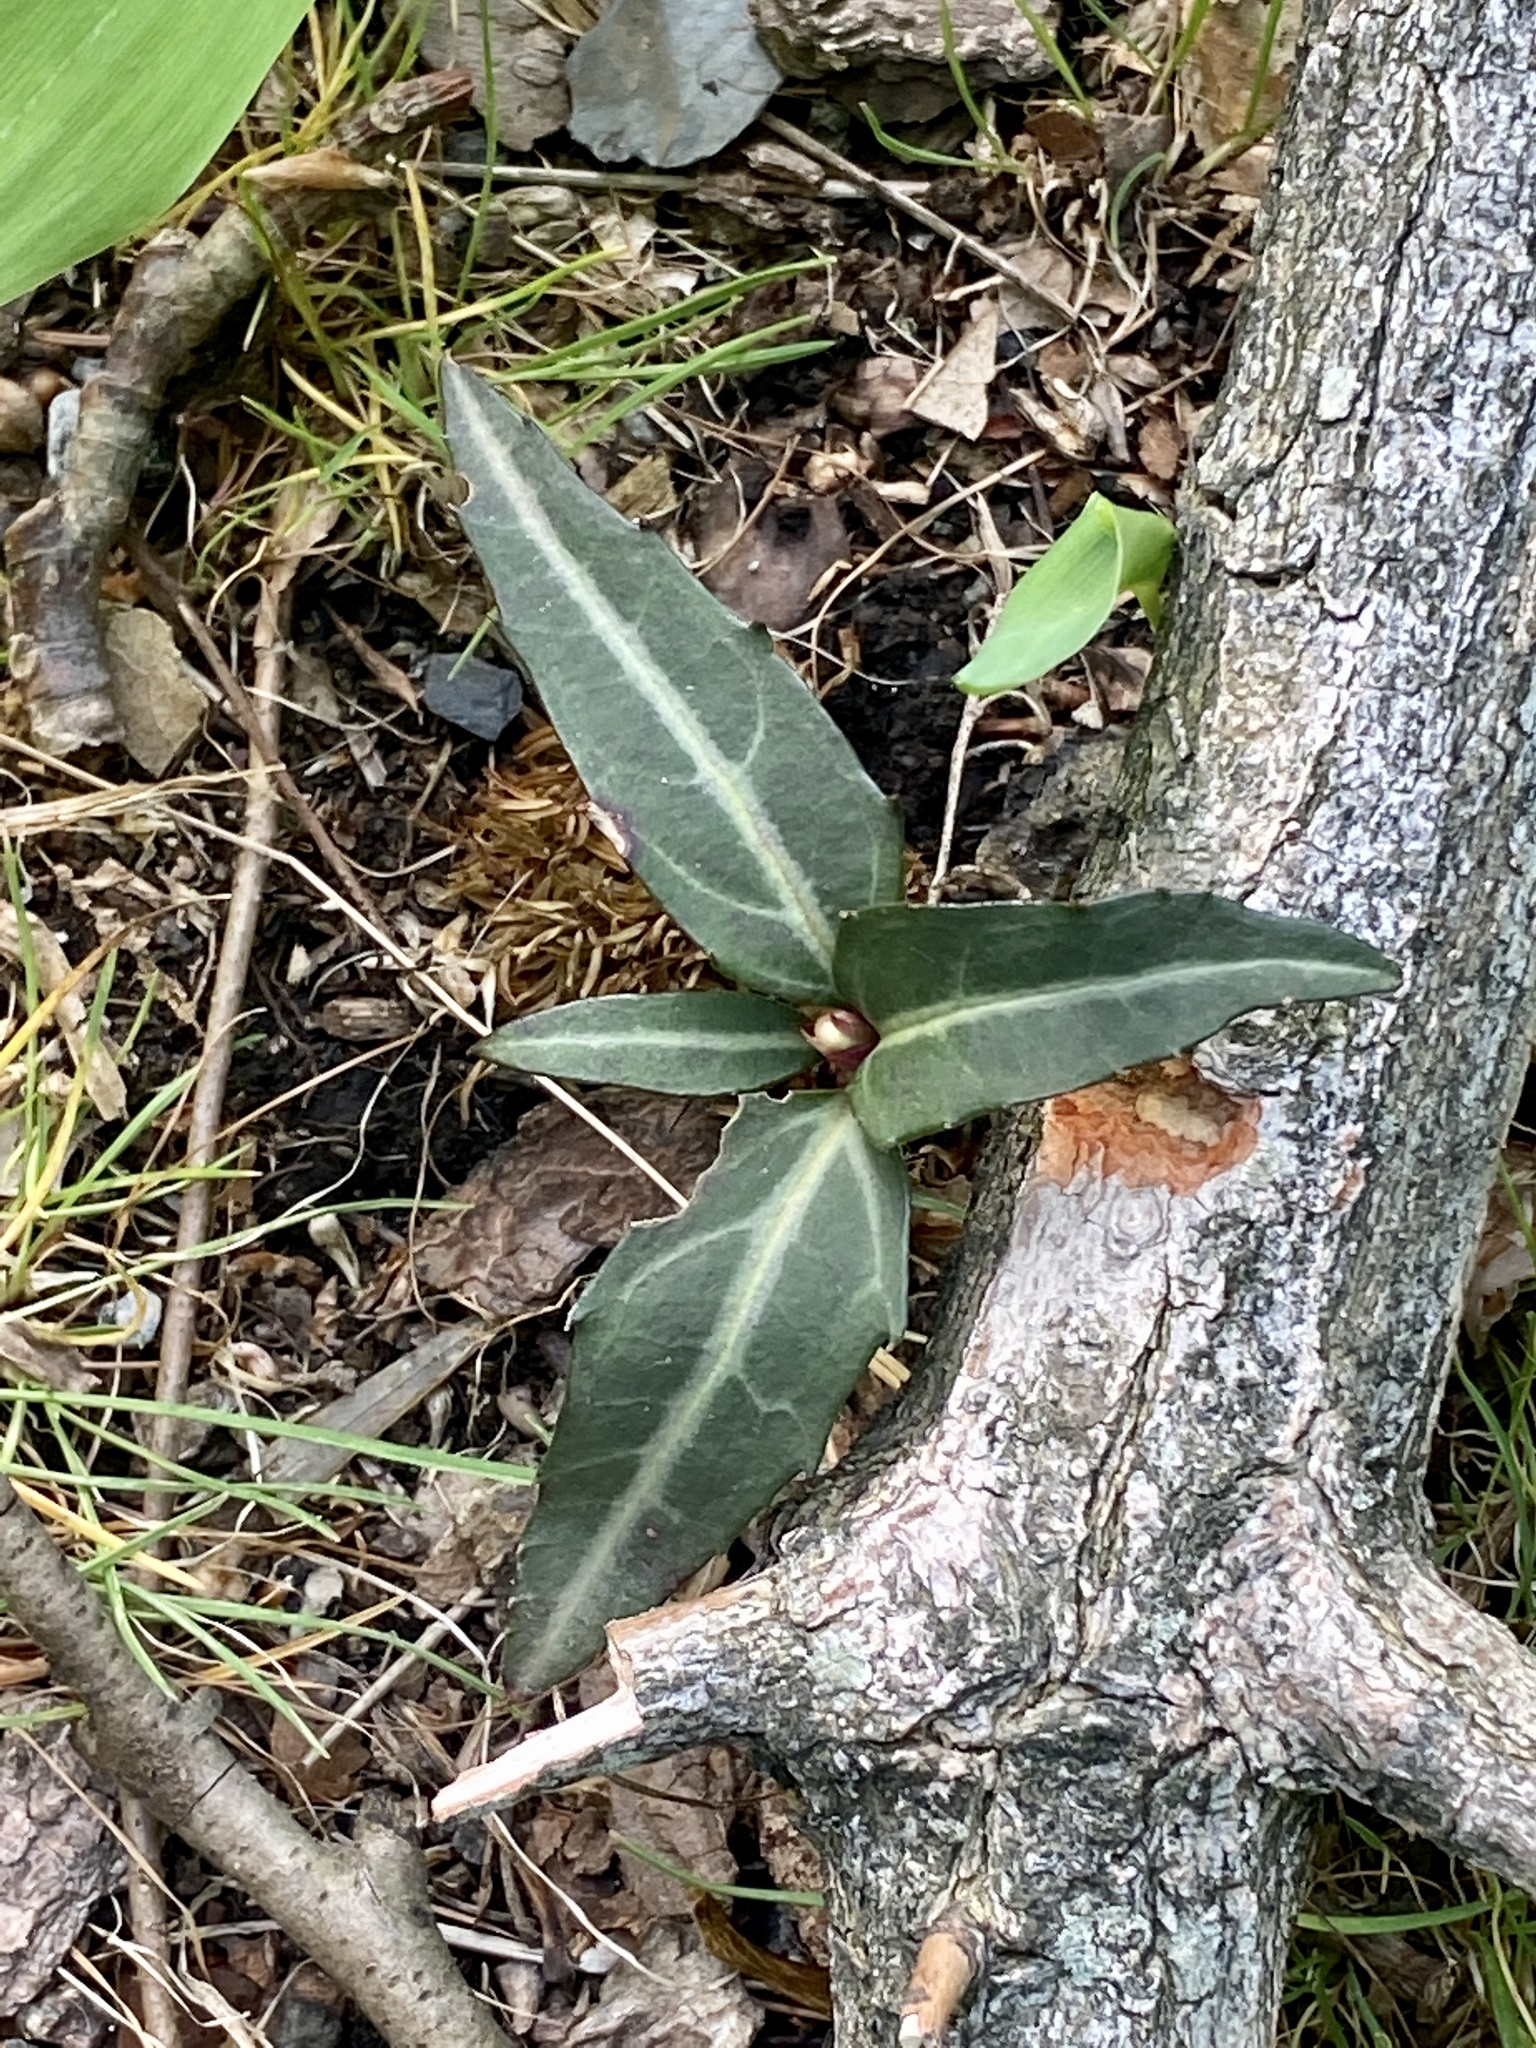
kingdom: Plantae
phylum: Tracheophyta
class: Magnoliopsida
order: Ericales
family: Ericaceae
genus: Chimaphila
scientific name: Chimaphila maculata
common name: Spotted pipsissewa
